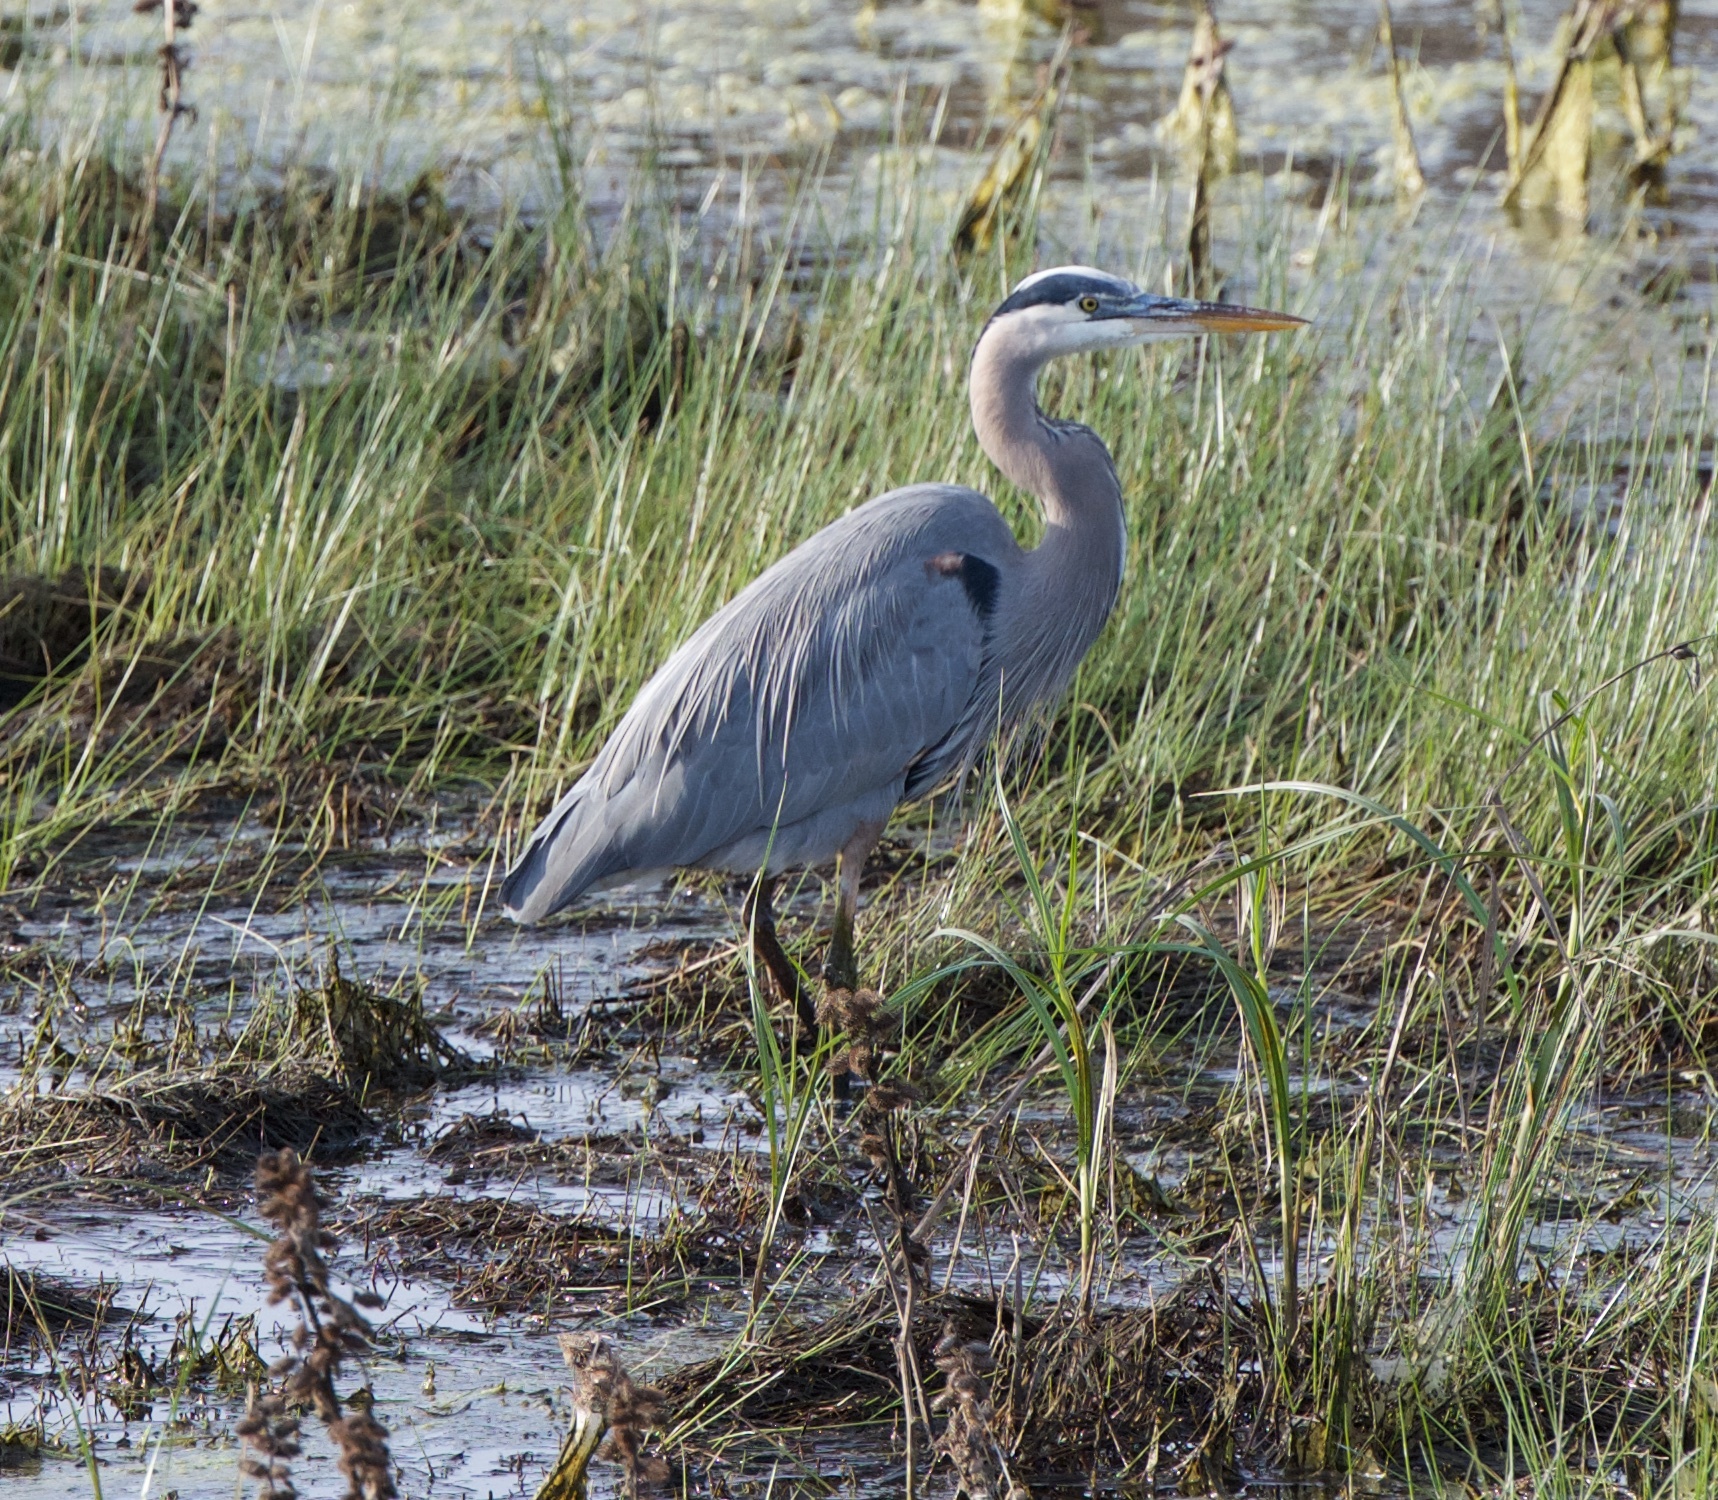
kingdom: Animalia
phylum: Chordata
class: Aves
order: Pelecaniformes
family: Ardeidae
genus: Ardea
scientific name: Ardea herodias
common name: Great blue heron
